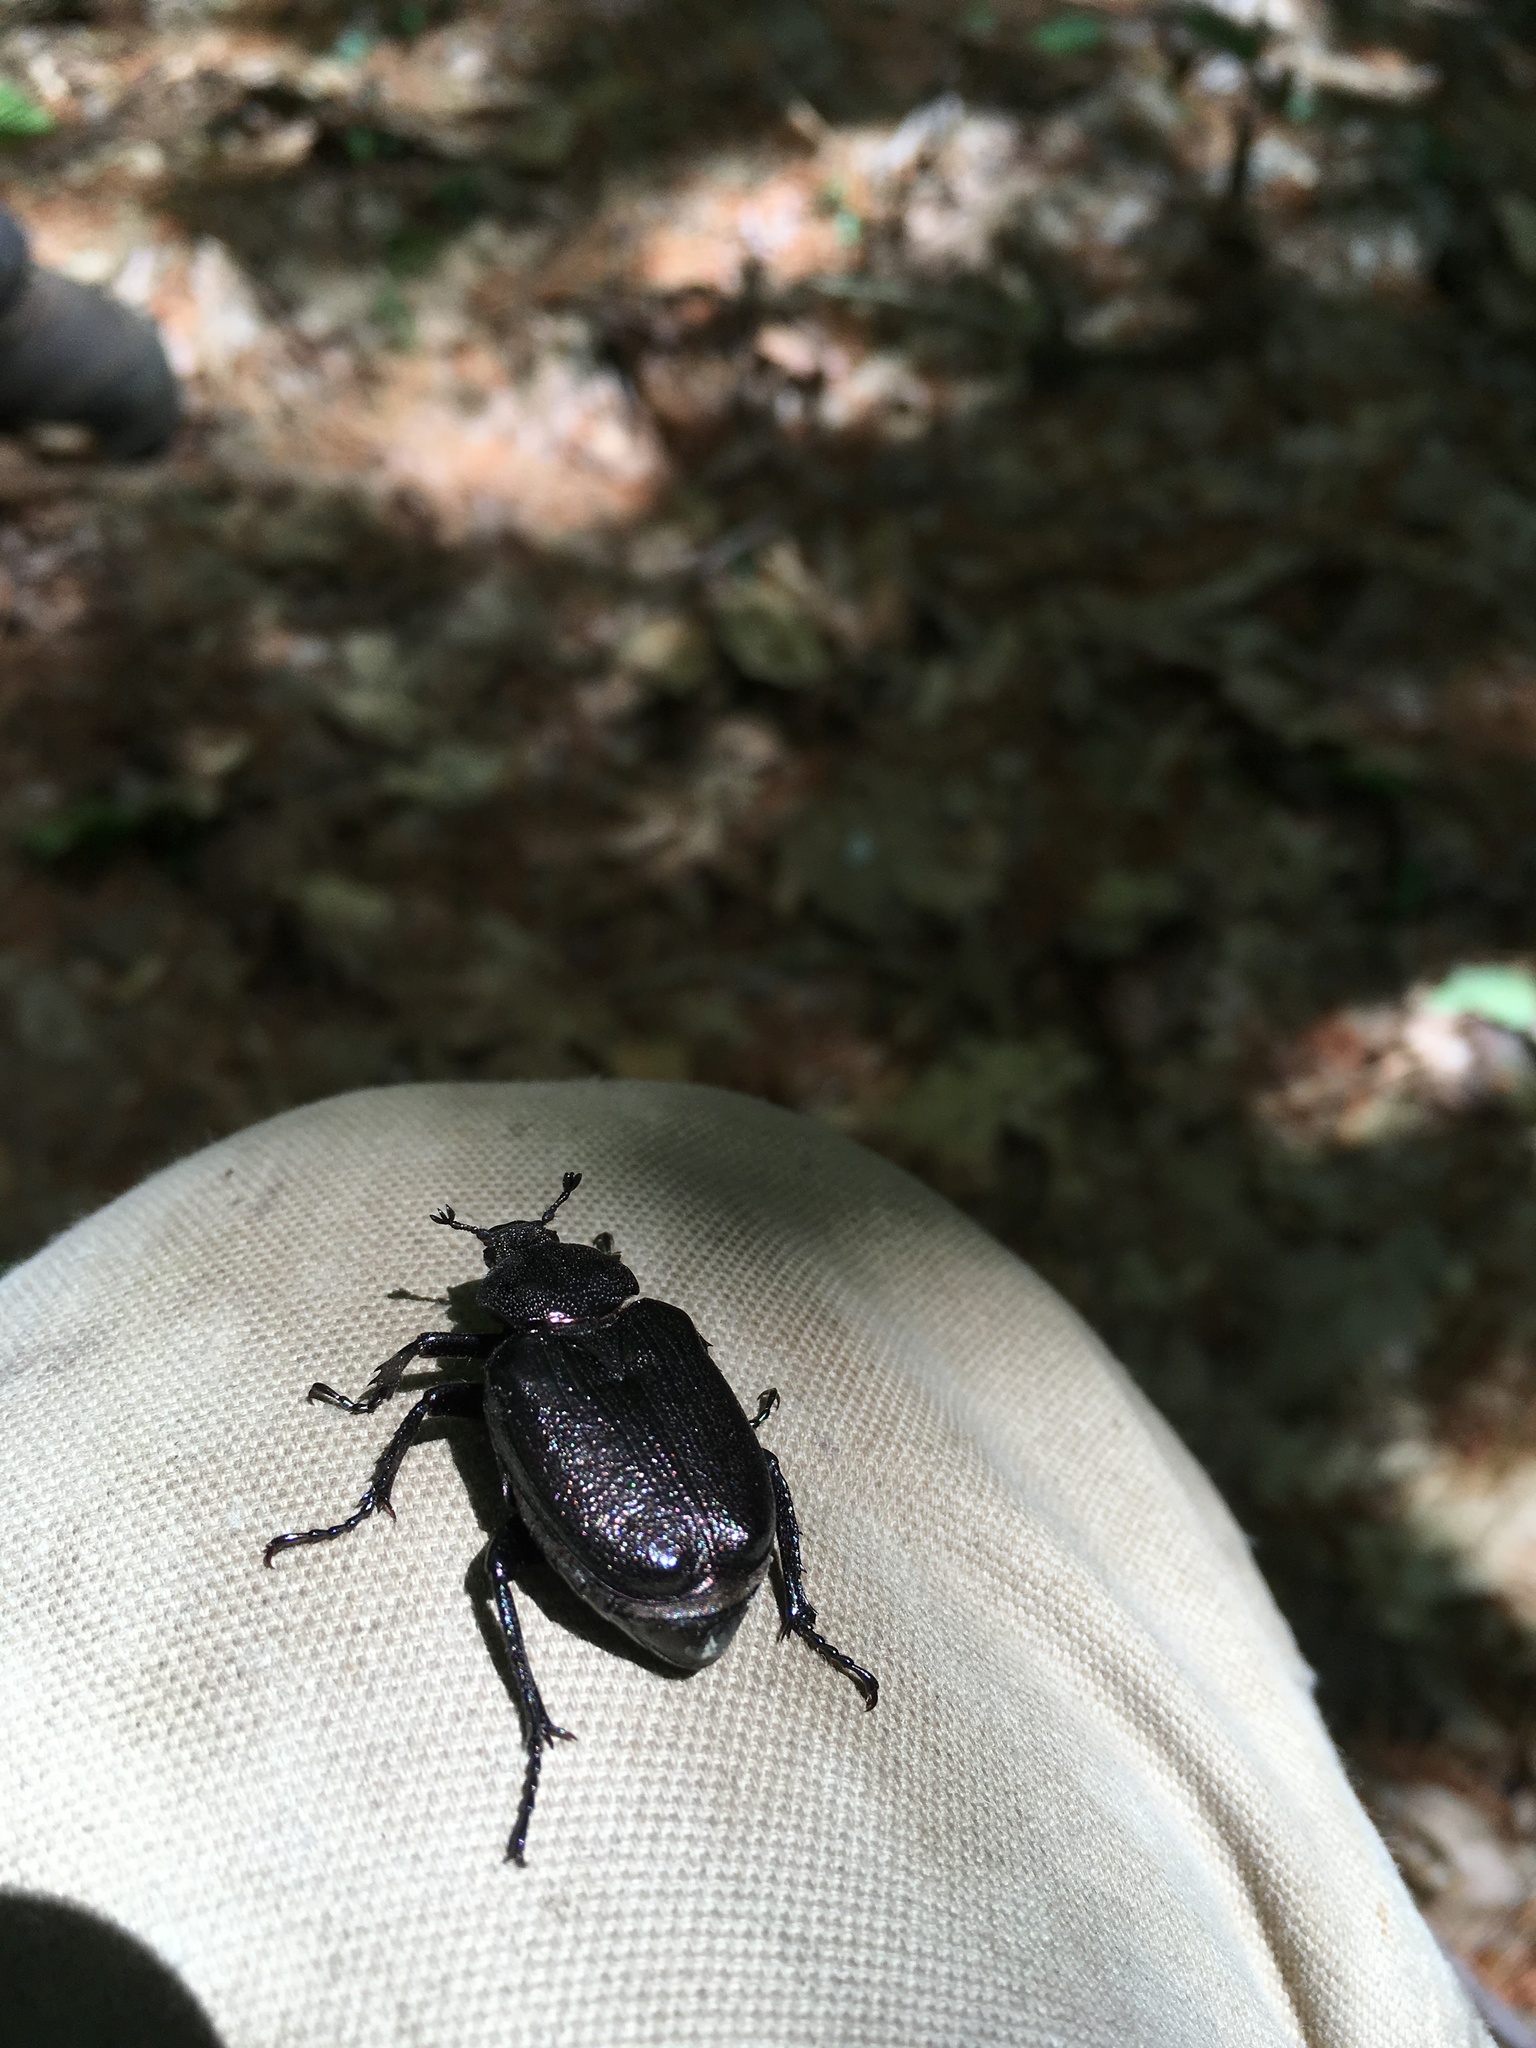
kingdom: Animalia
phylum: Arthropoda
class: Insecta
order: Coleoptera
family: Scarabaeidae
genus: Osmoderma
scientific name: Osmoderma scabra
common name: Rough hermit beetle
